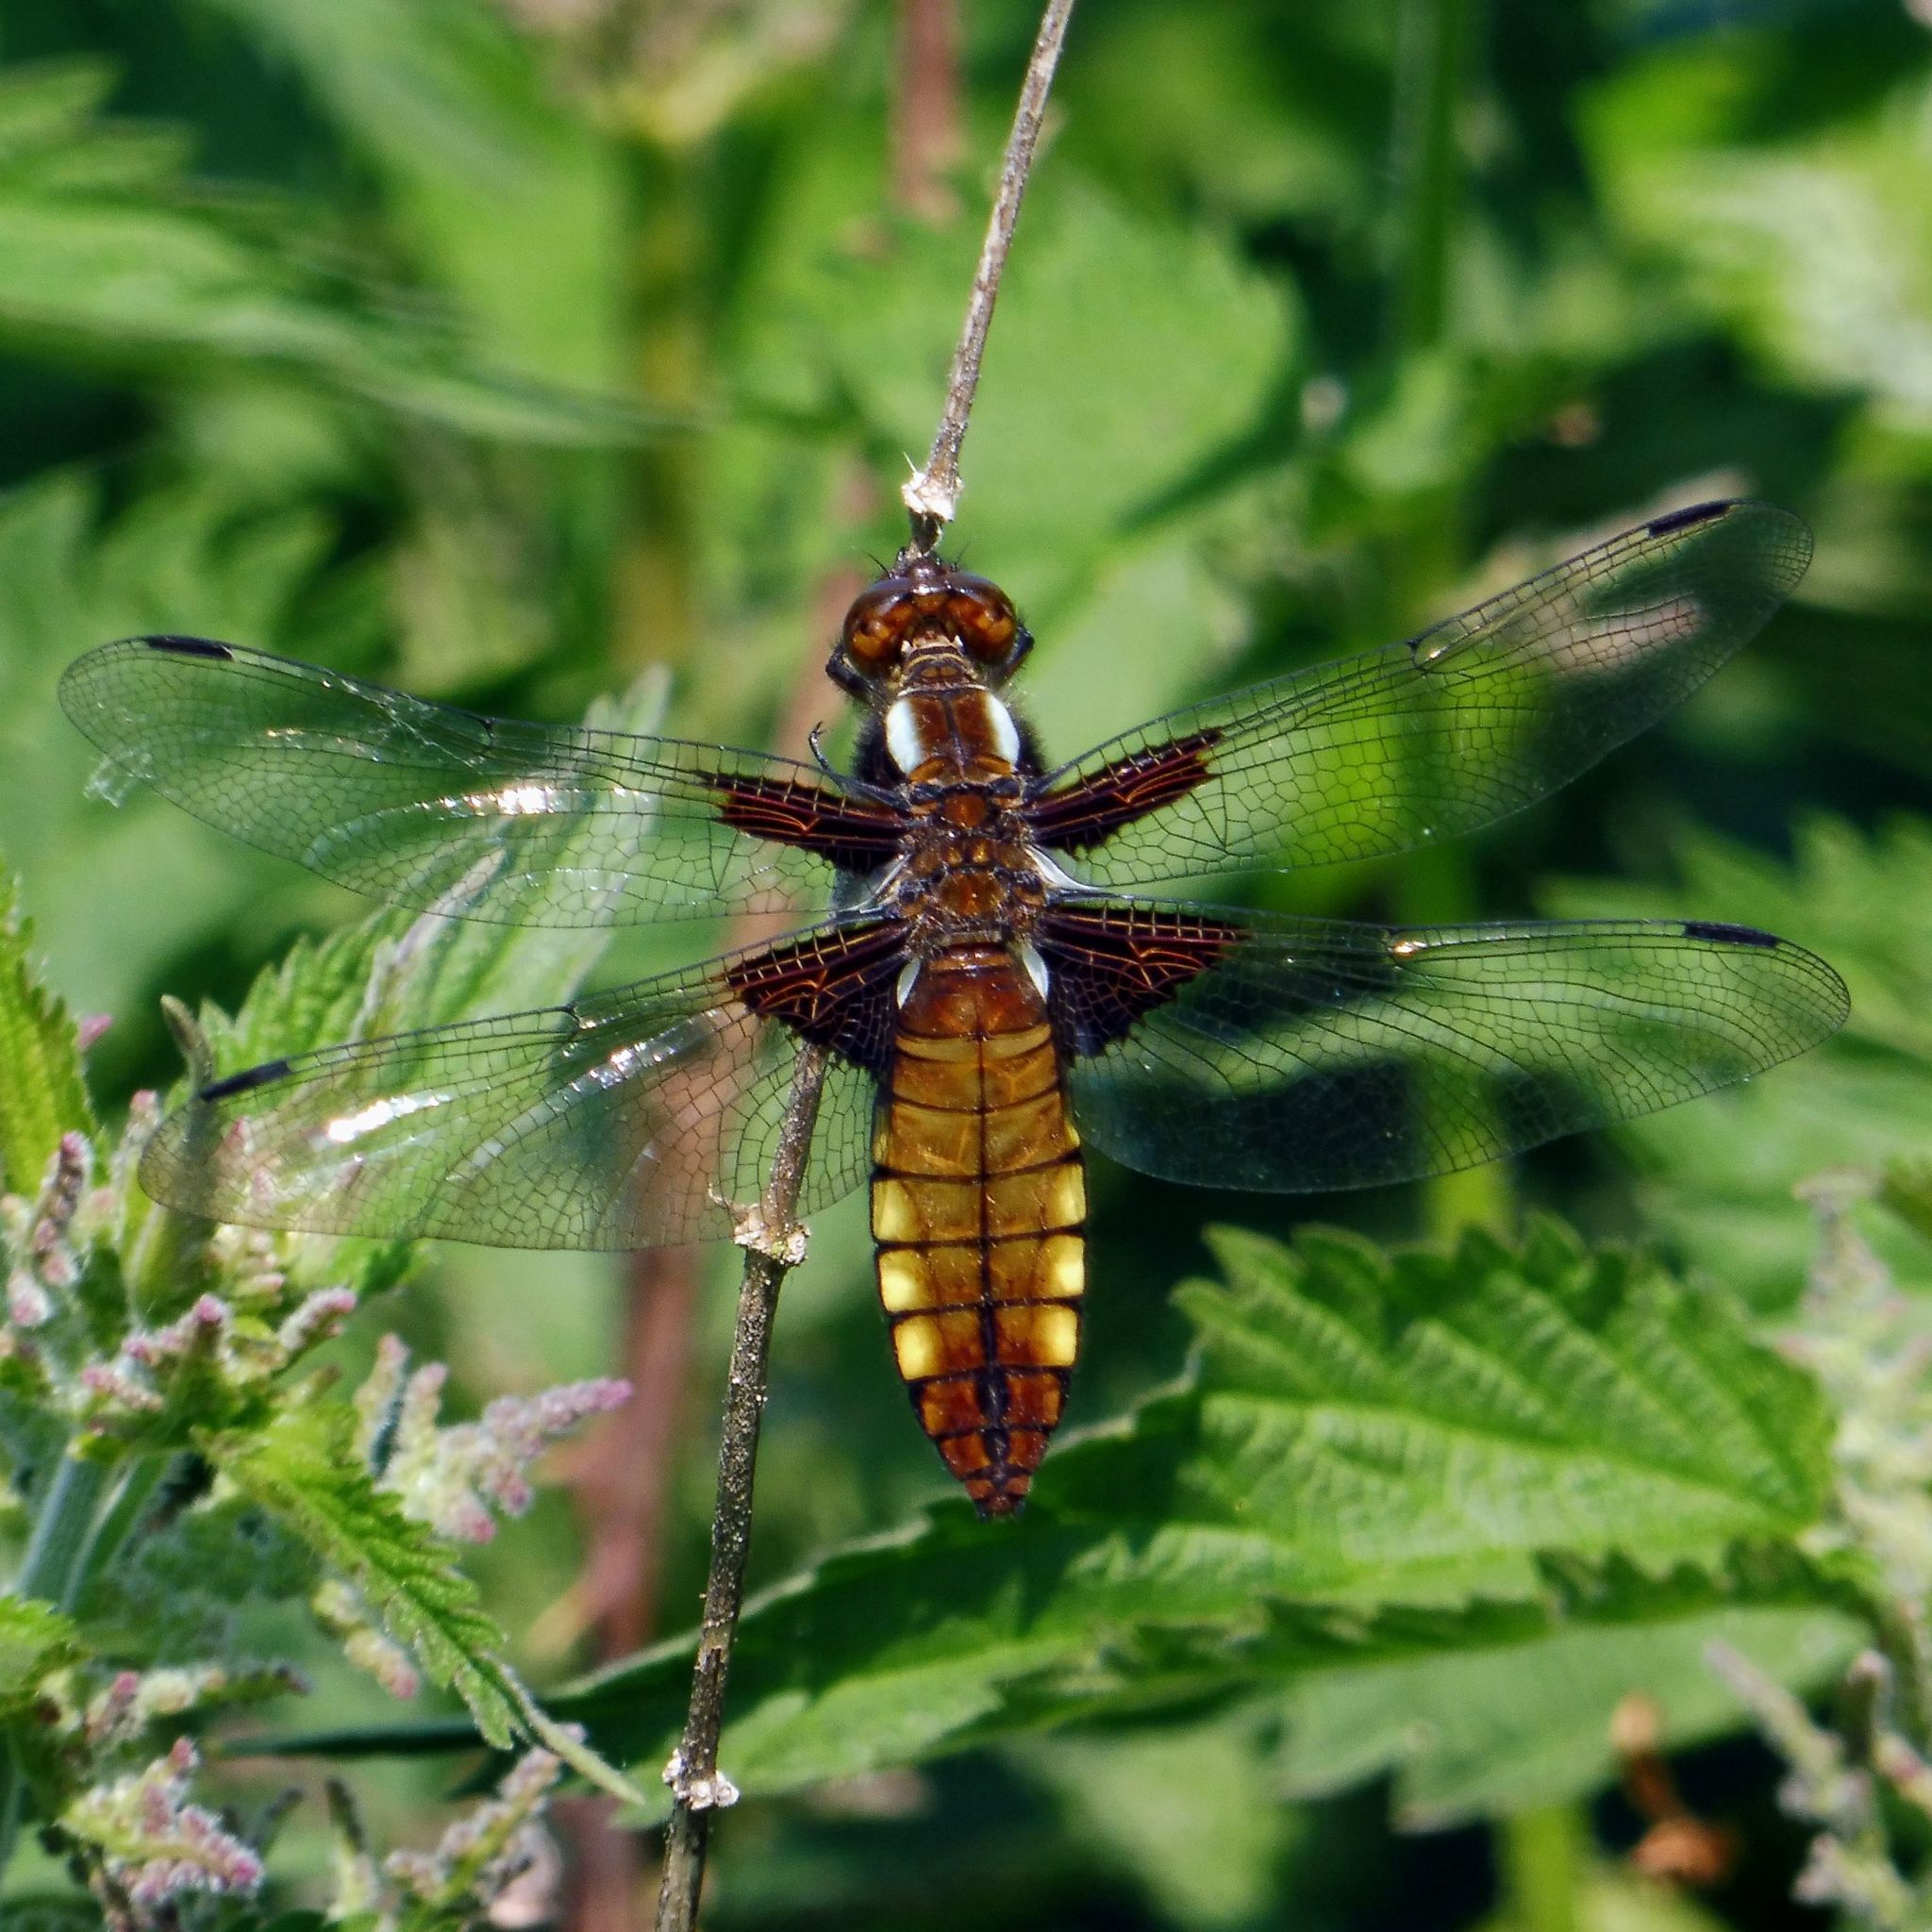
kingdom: Animalia
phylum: Arthropoda
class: Insecta
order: Odonata
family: Libellulidae
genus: Libellula
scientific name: Libellula depressa
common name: Broad-bodied chaser
